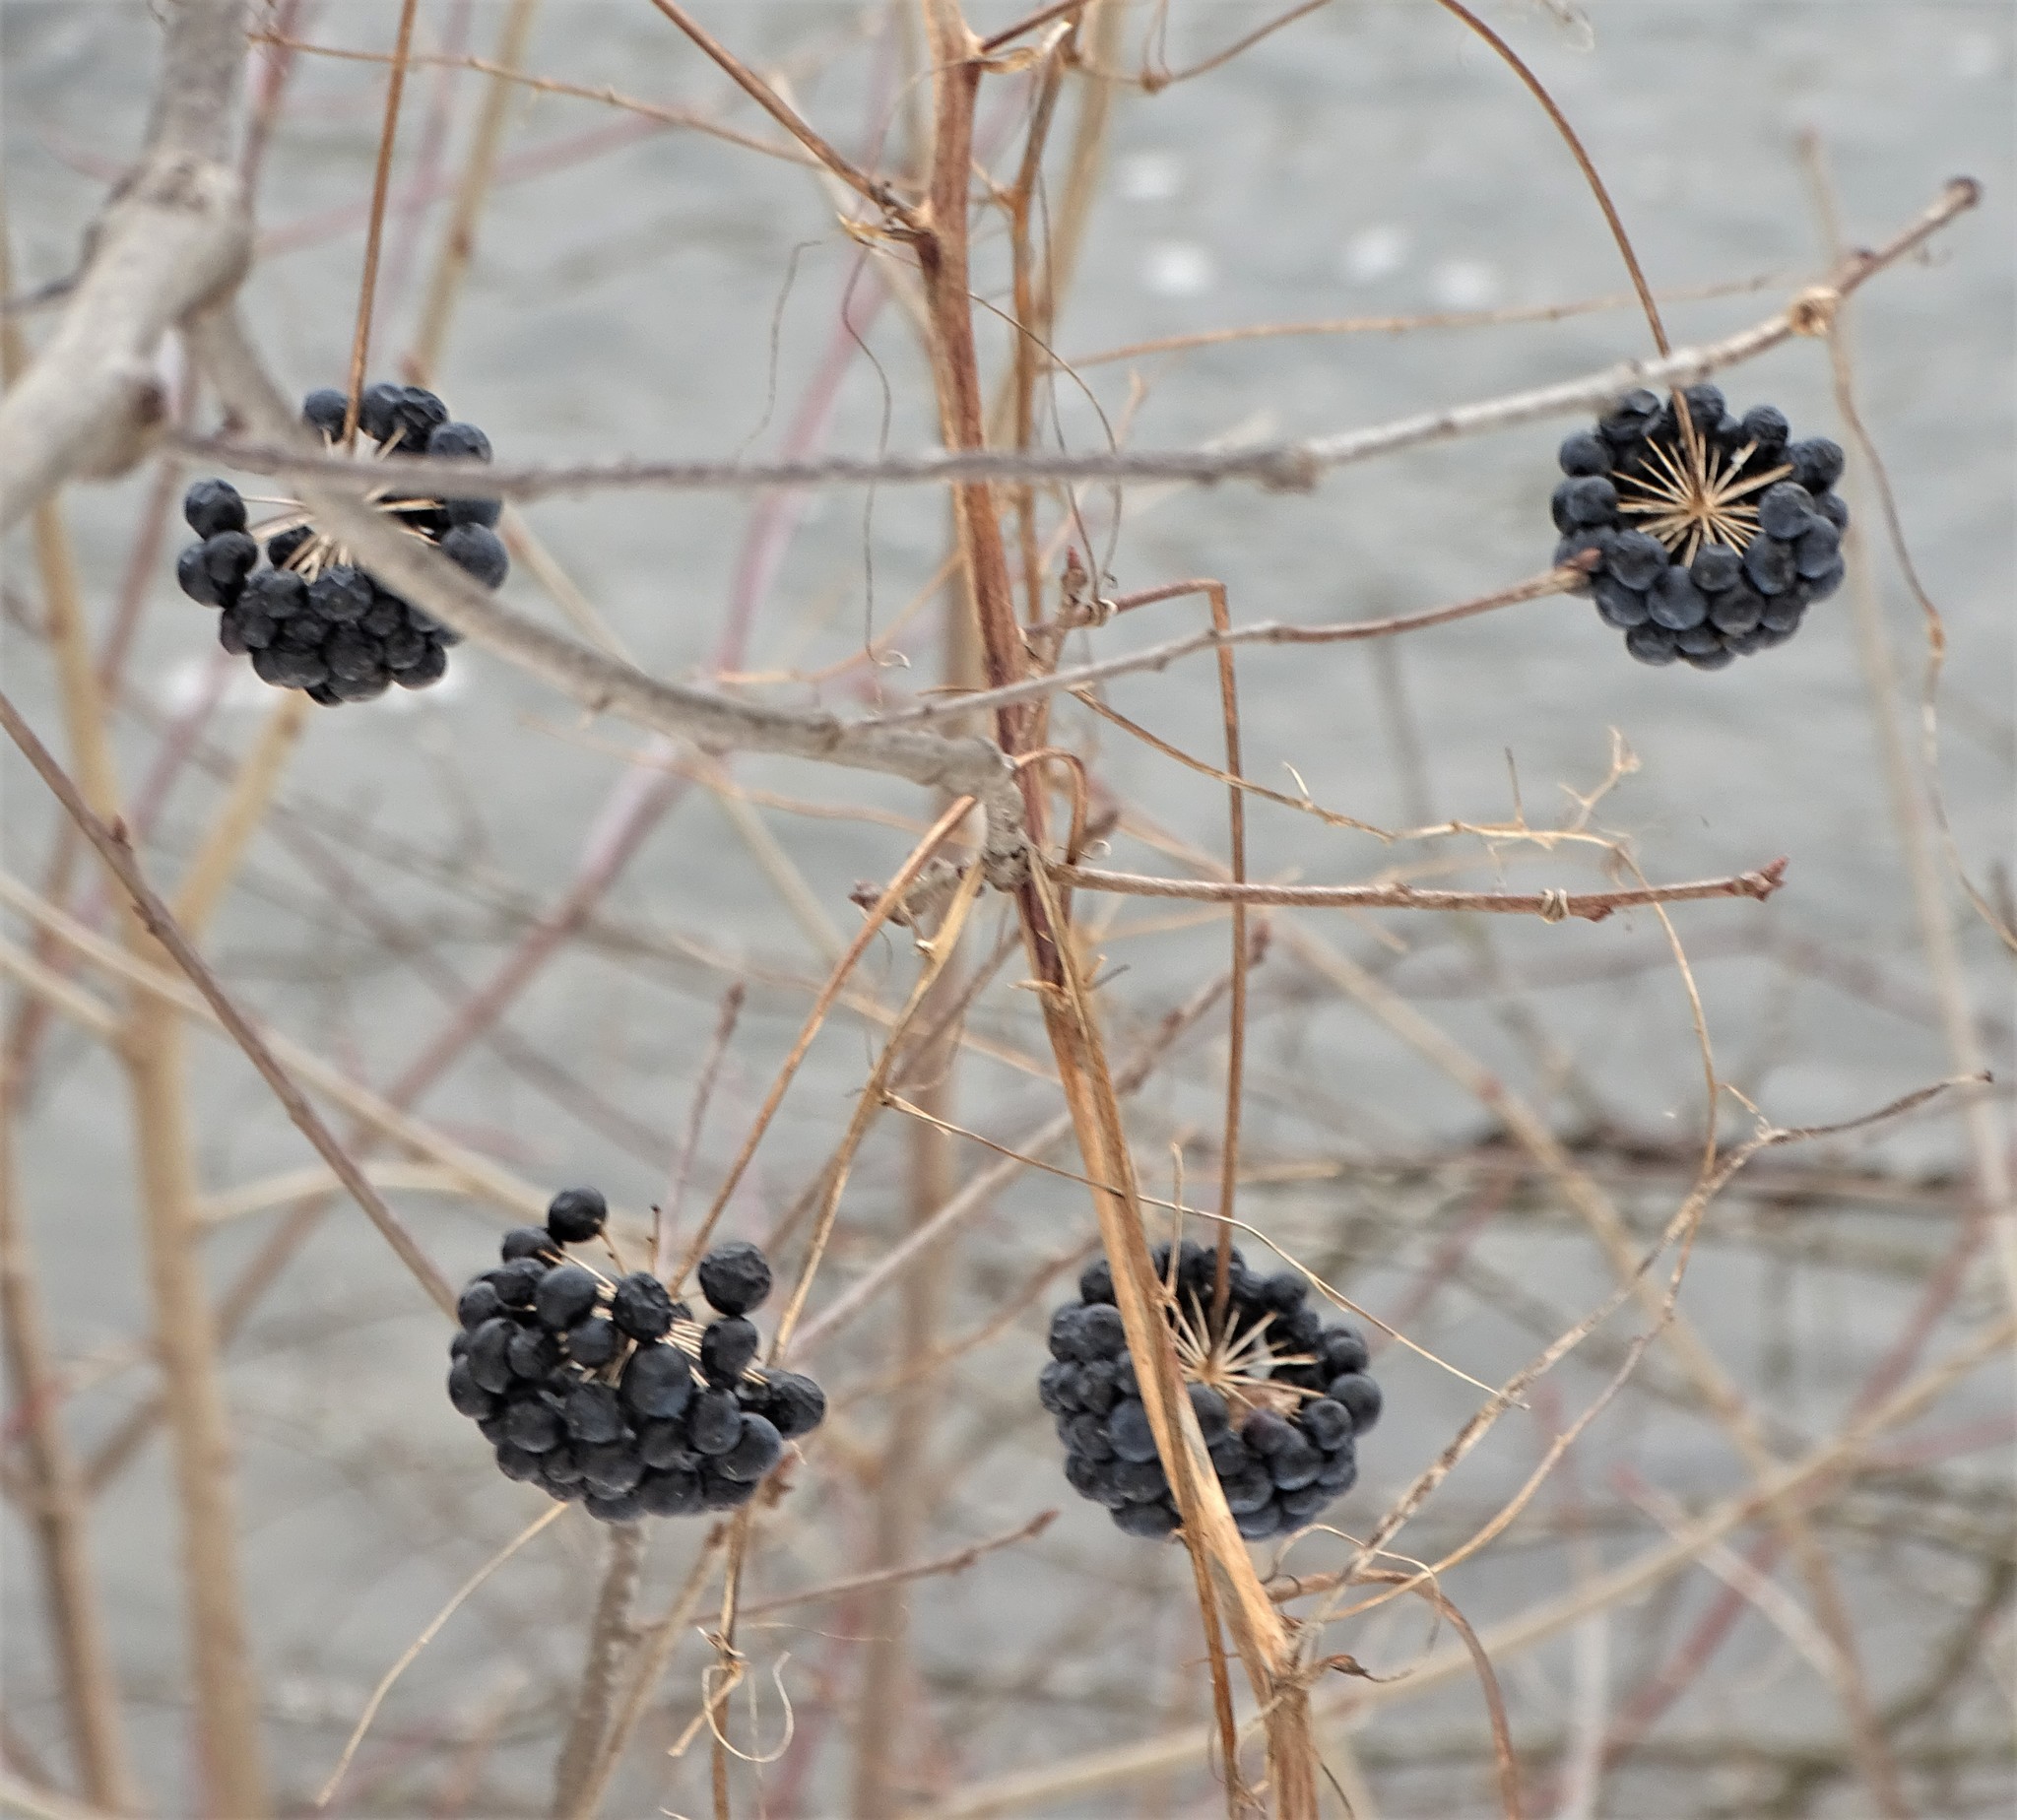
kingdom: Plantae
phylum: Tracheophyta
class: Liliopsida
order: Liliales
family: Smilacaceae
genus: Smilax
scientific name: Smilax herbacea
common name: Jacob's-ladder
